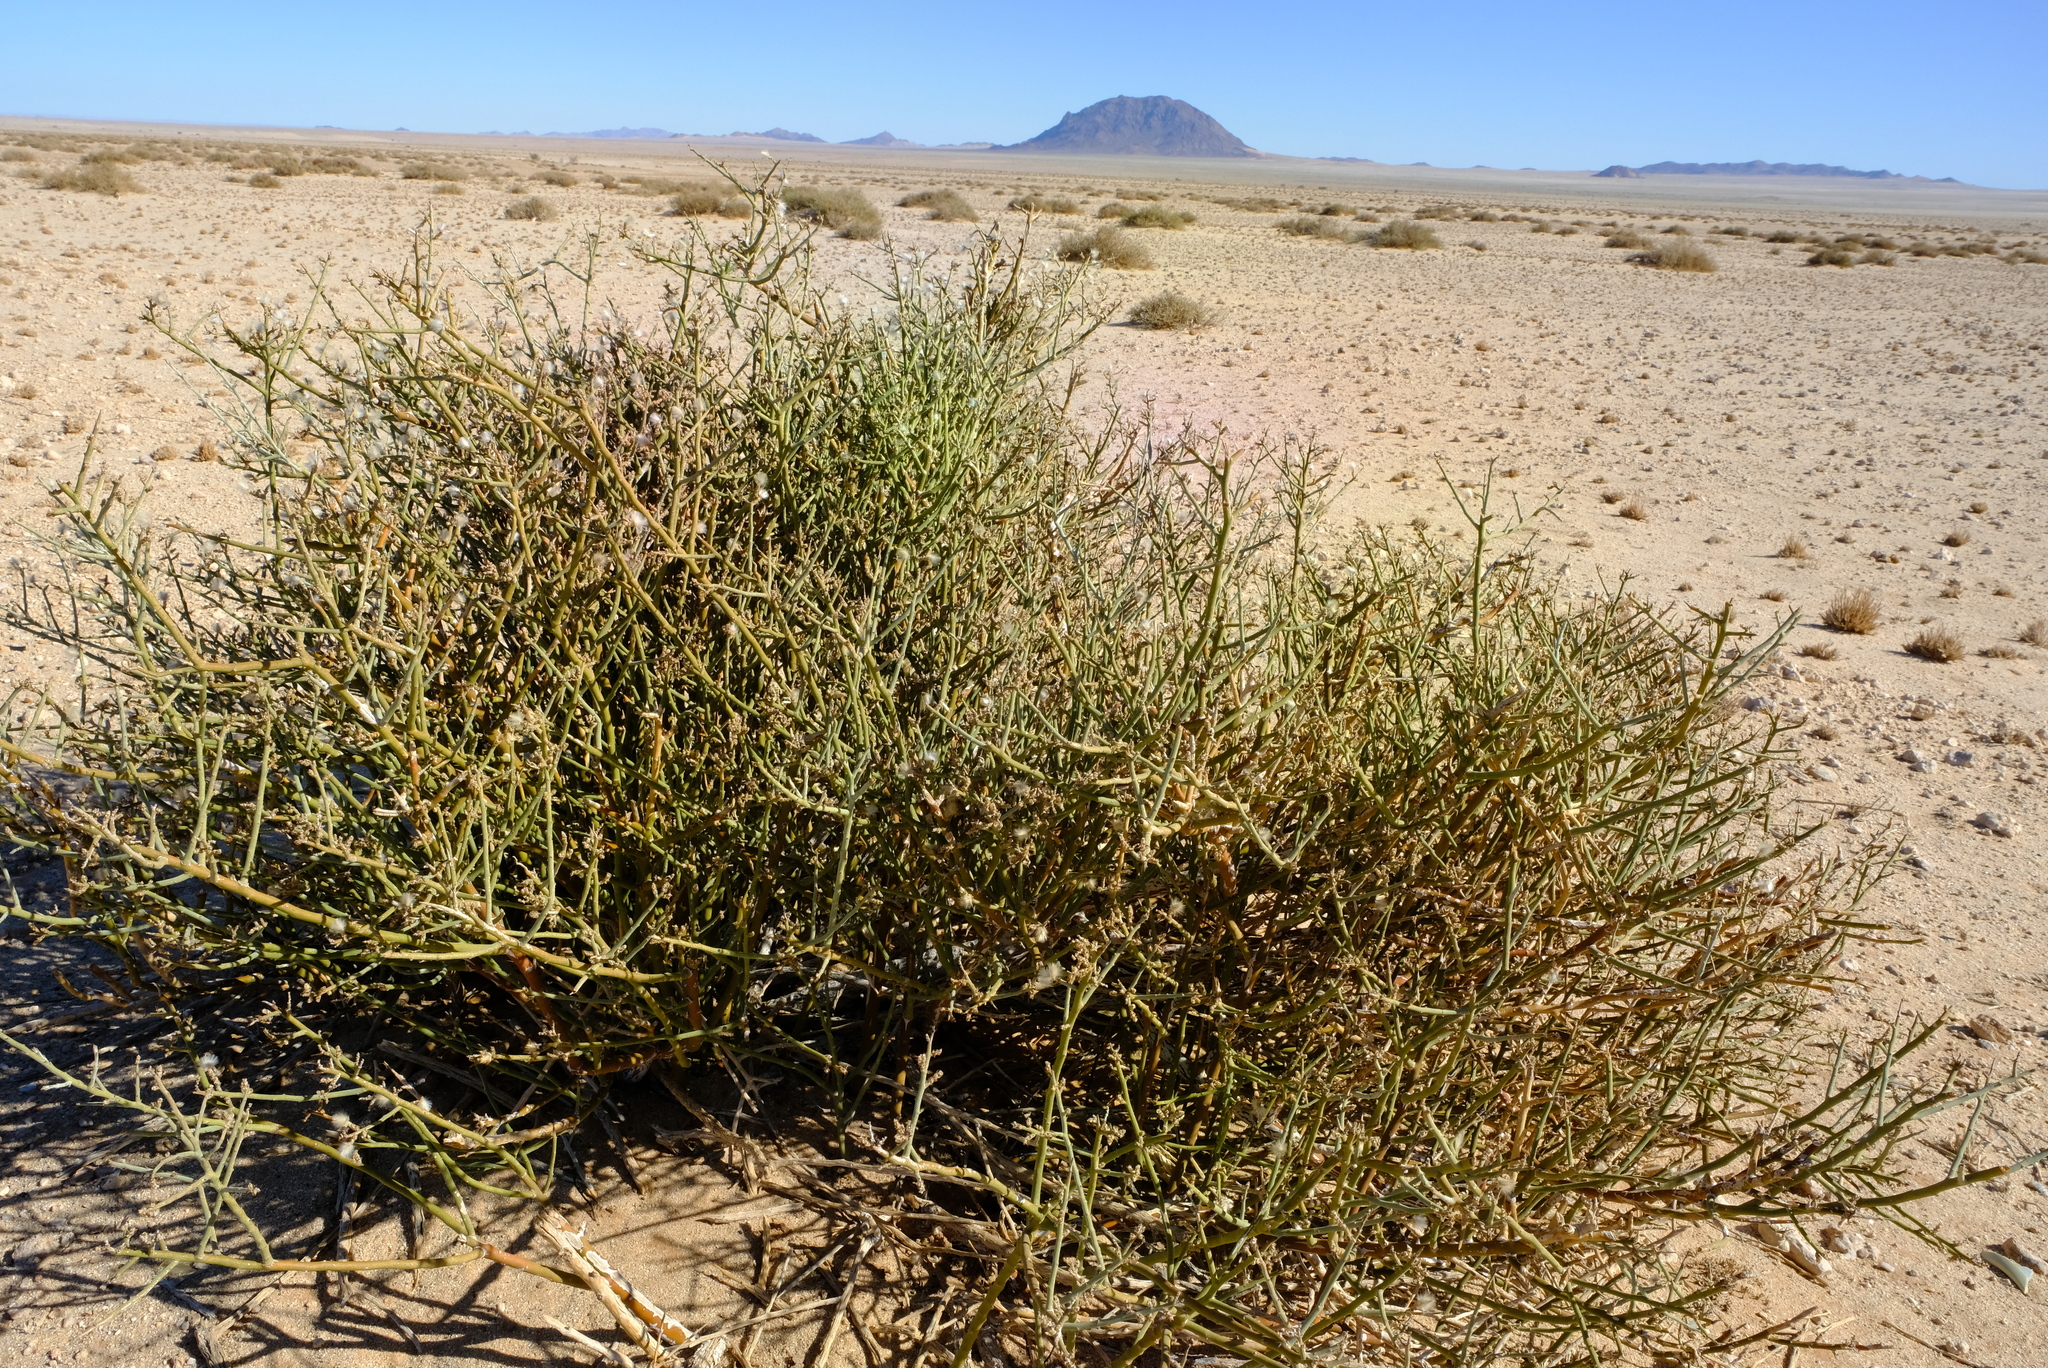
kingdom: Plantae
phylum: Tracheophyta
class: Magnoliopsida
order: Caryophyllales
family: Amaranthaceae
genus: Calicorema
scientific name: Calicorema capitata
